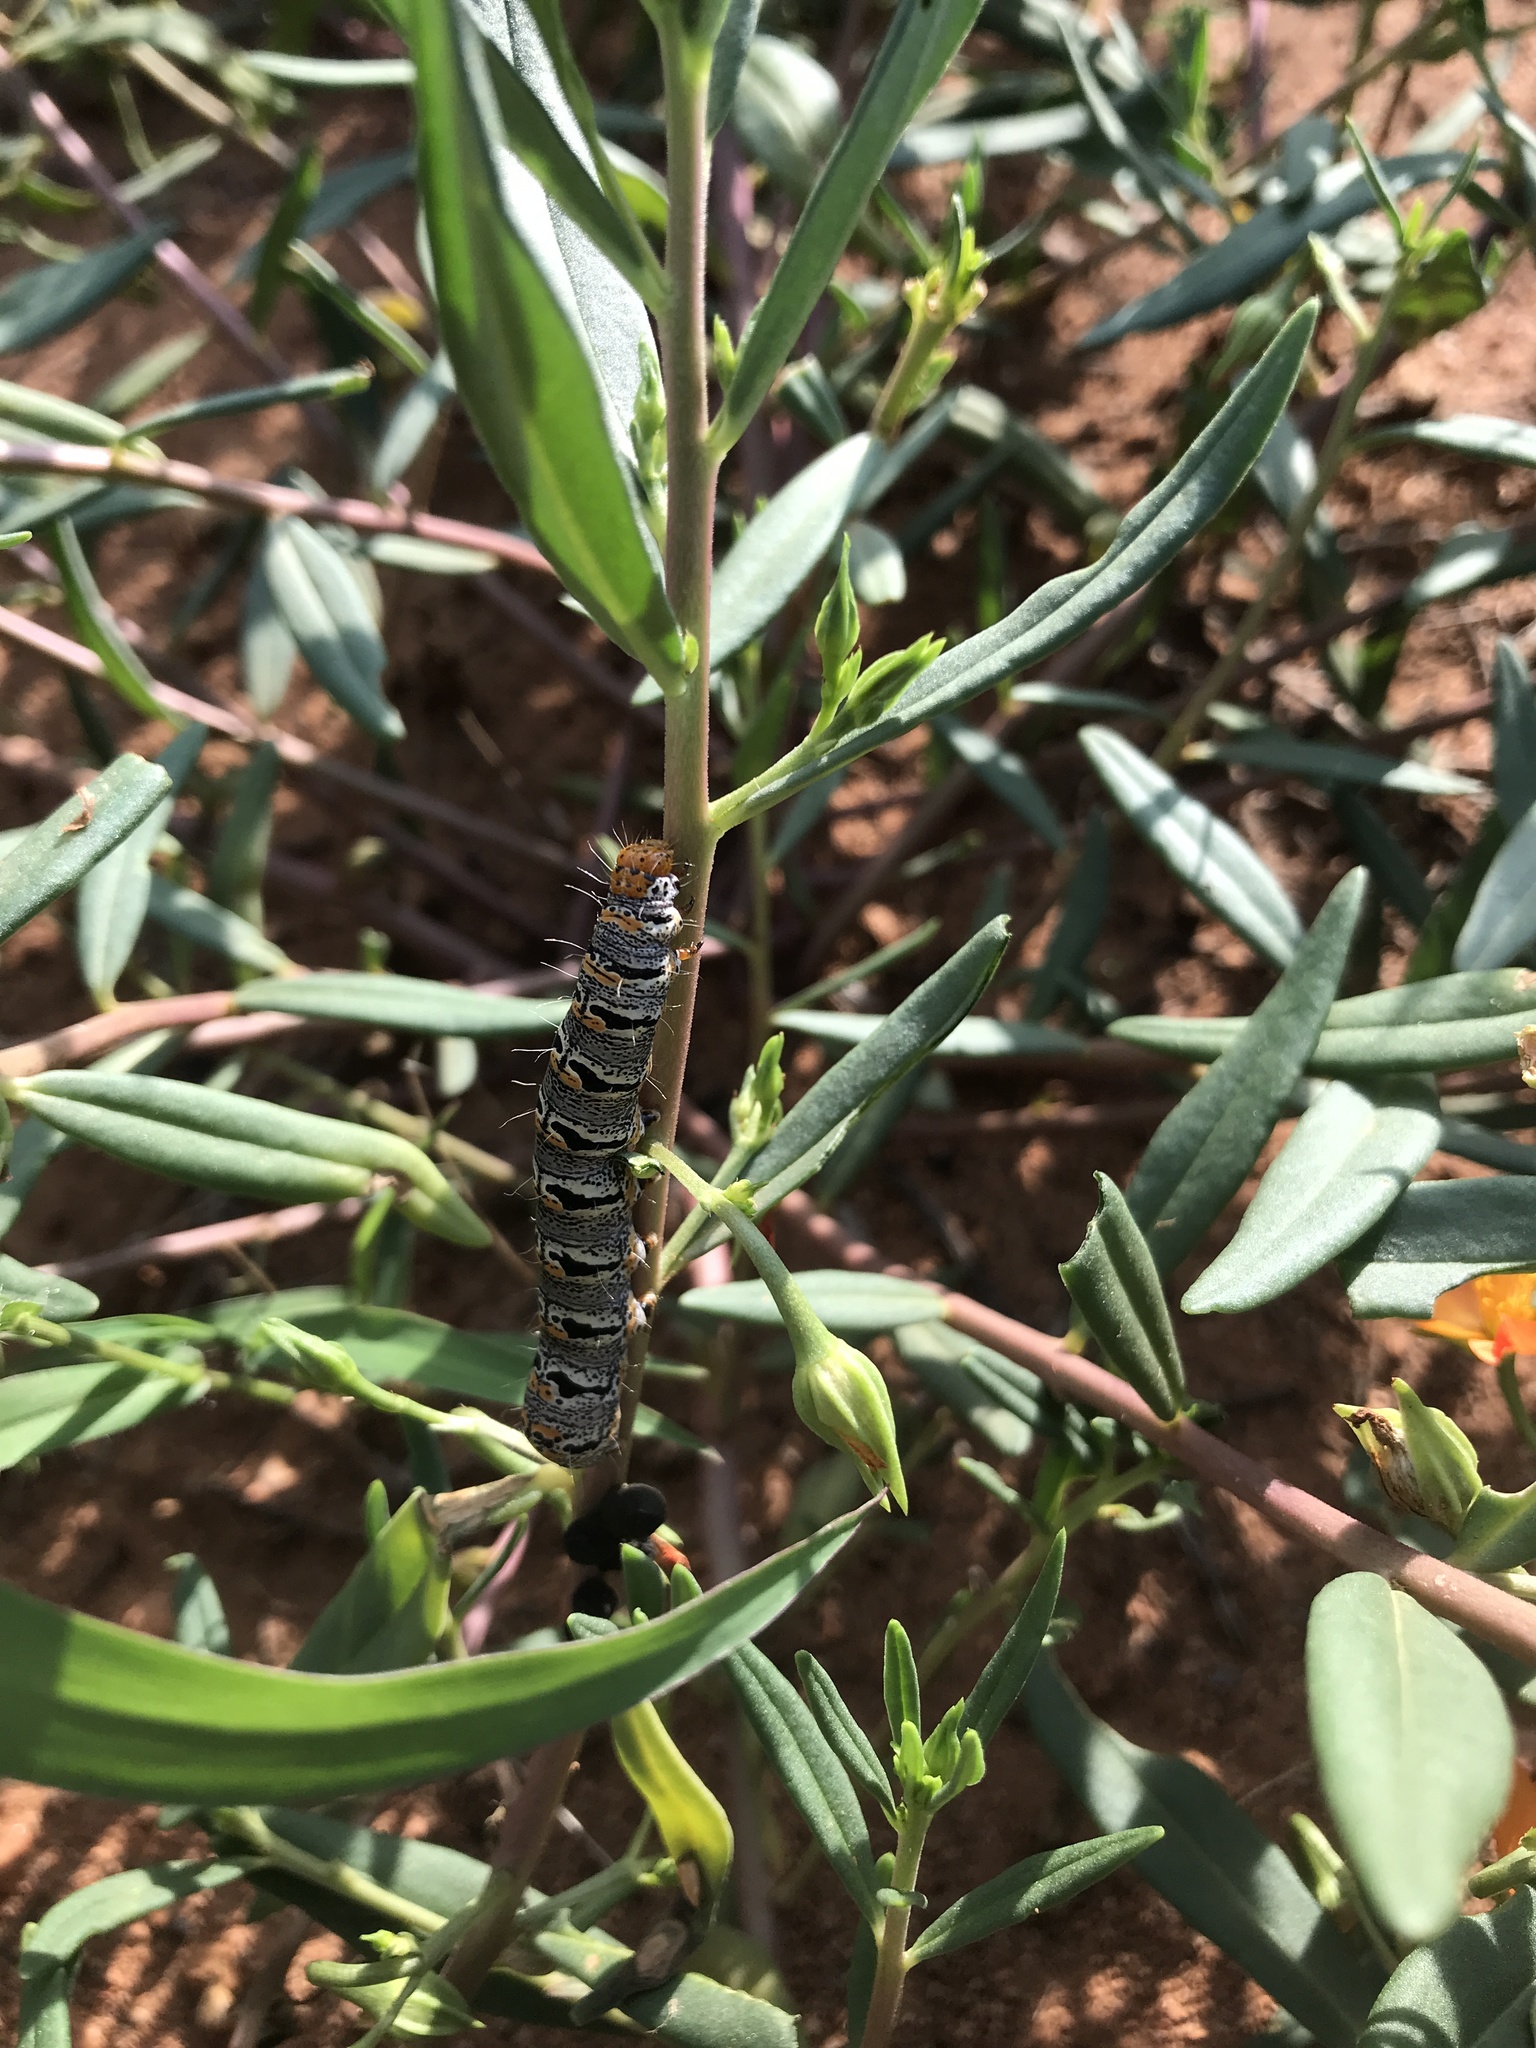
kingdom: Animalia
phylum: Arthropoda
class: Insecta
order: Lepidoptera
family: Noctuidae
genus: Euscirrhopterus
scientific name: Euscirrhopterus gloveri
